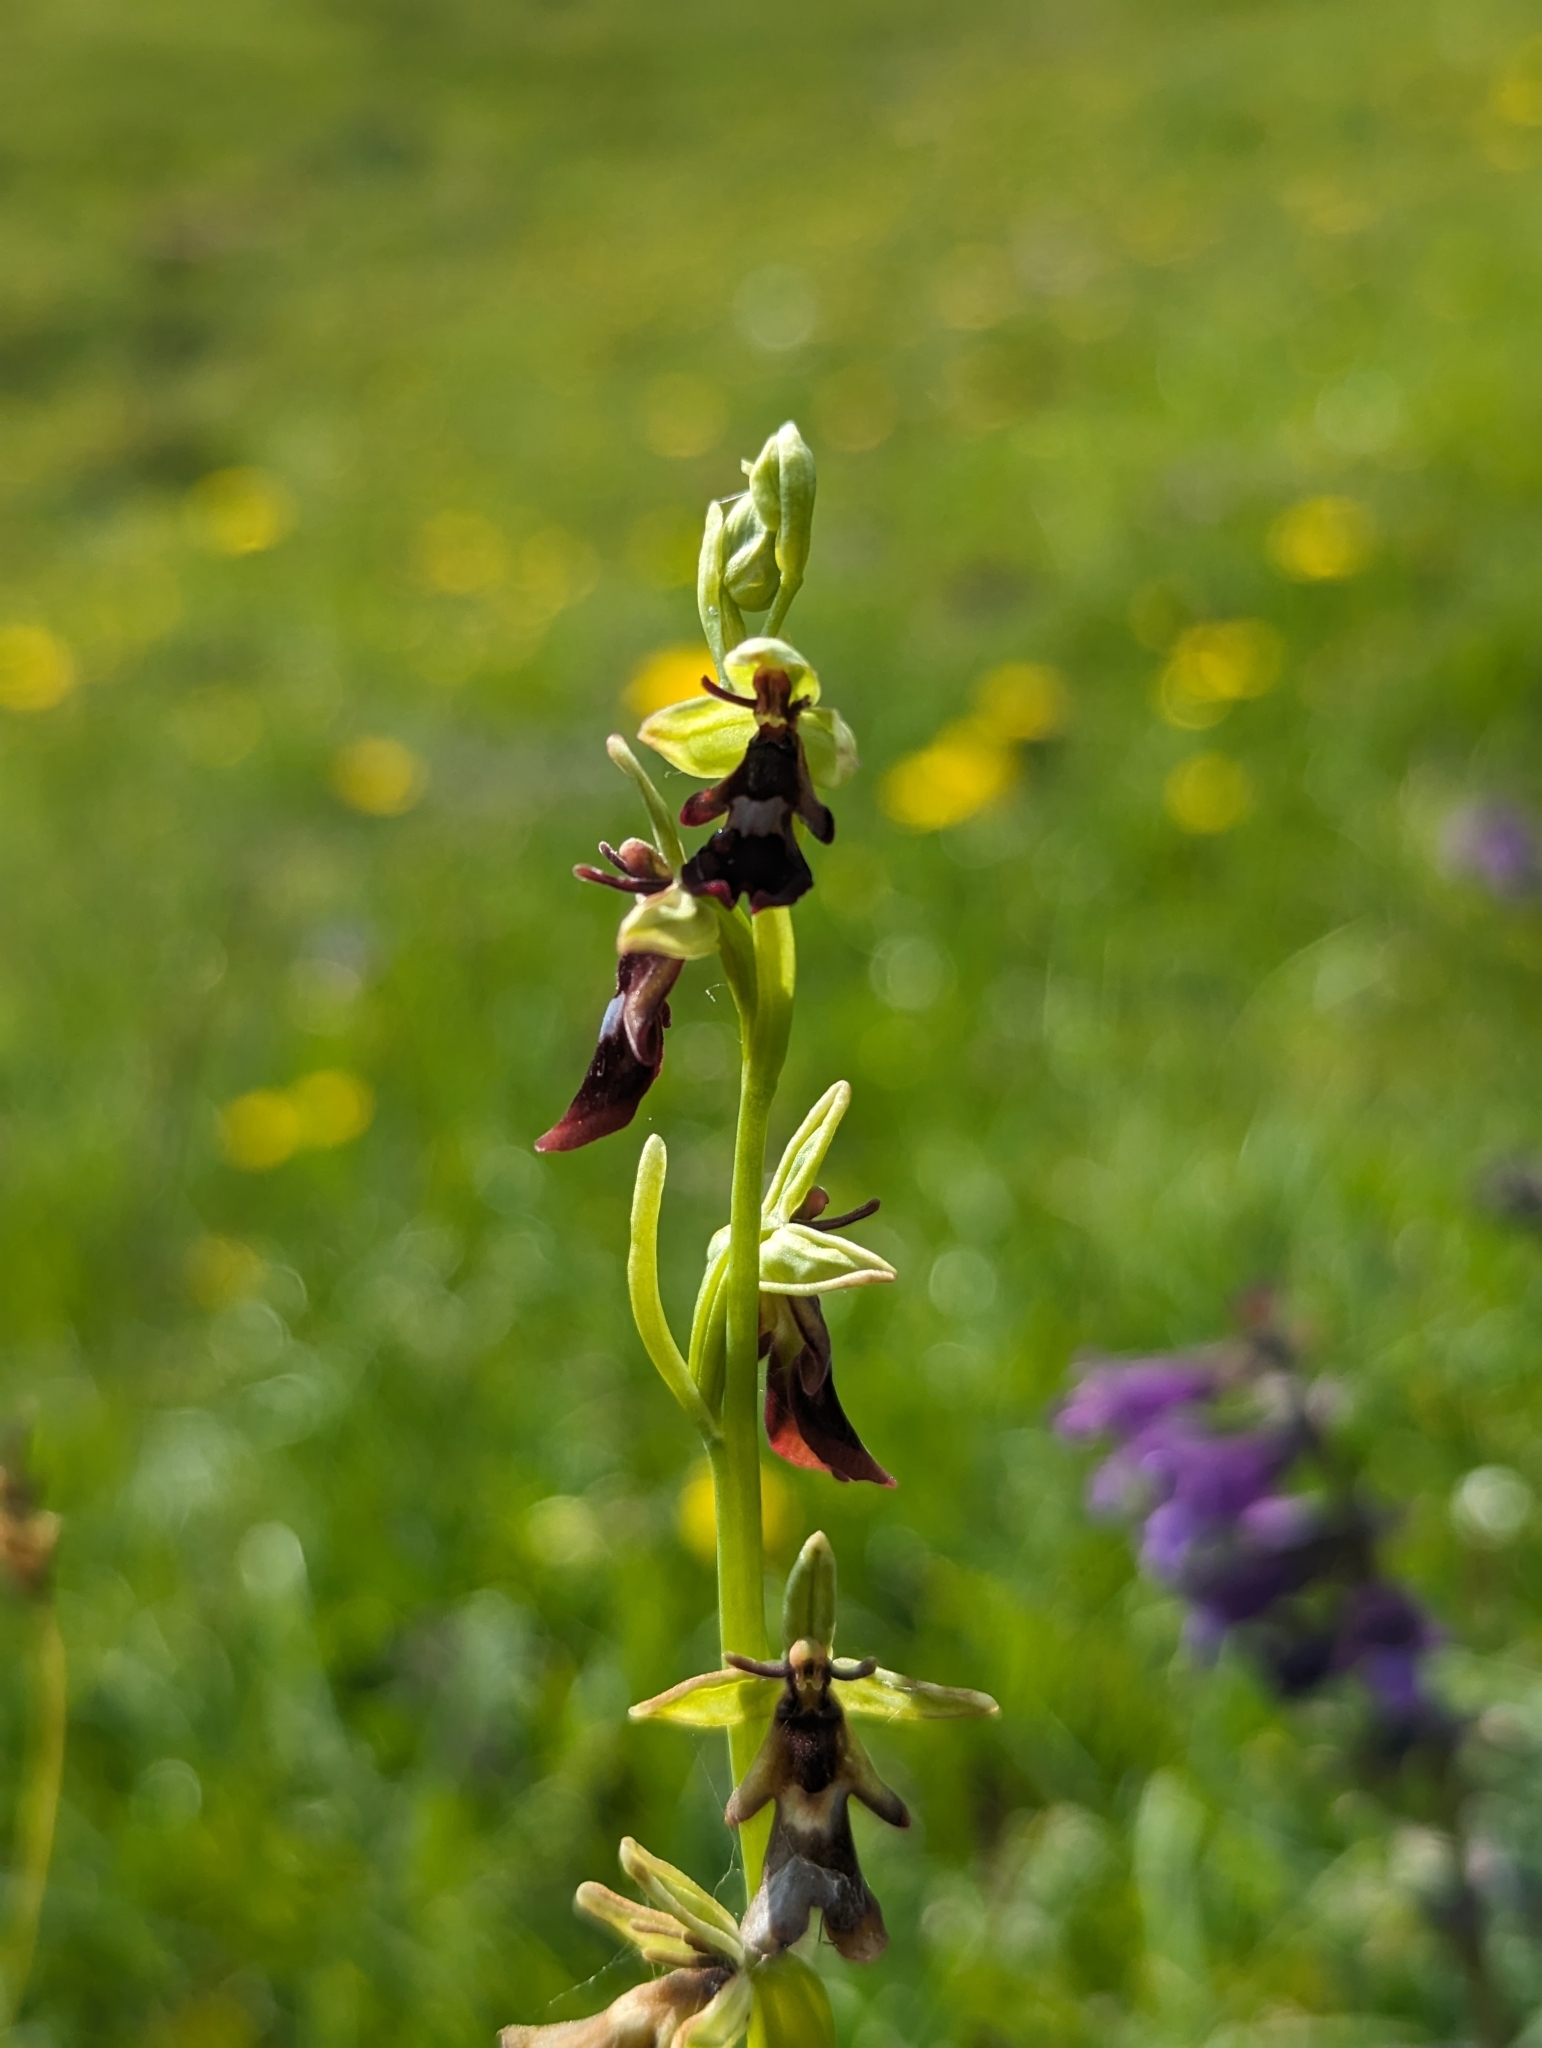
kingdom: Plantae
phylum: Tracheophyta
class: Liliopsida
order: Asparagales
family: Orchidaceae
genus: Ophrys
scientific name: Ophrys insectifera
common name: Fly orchid
